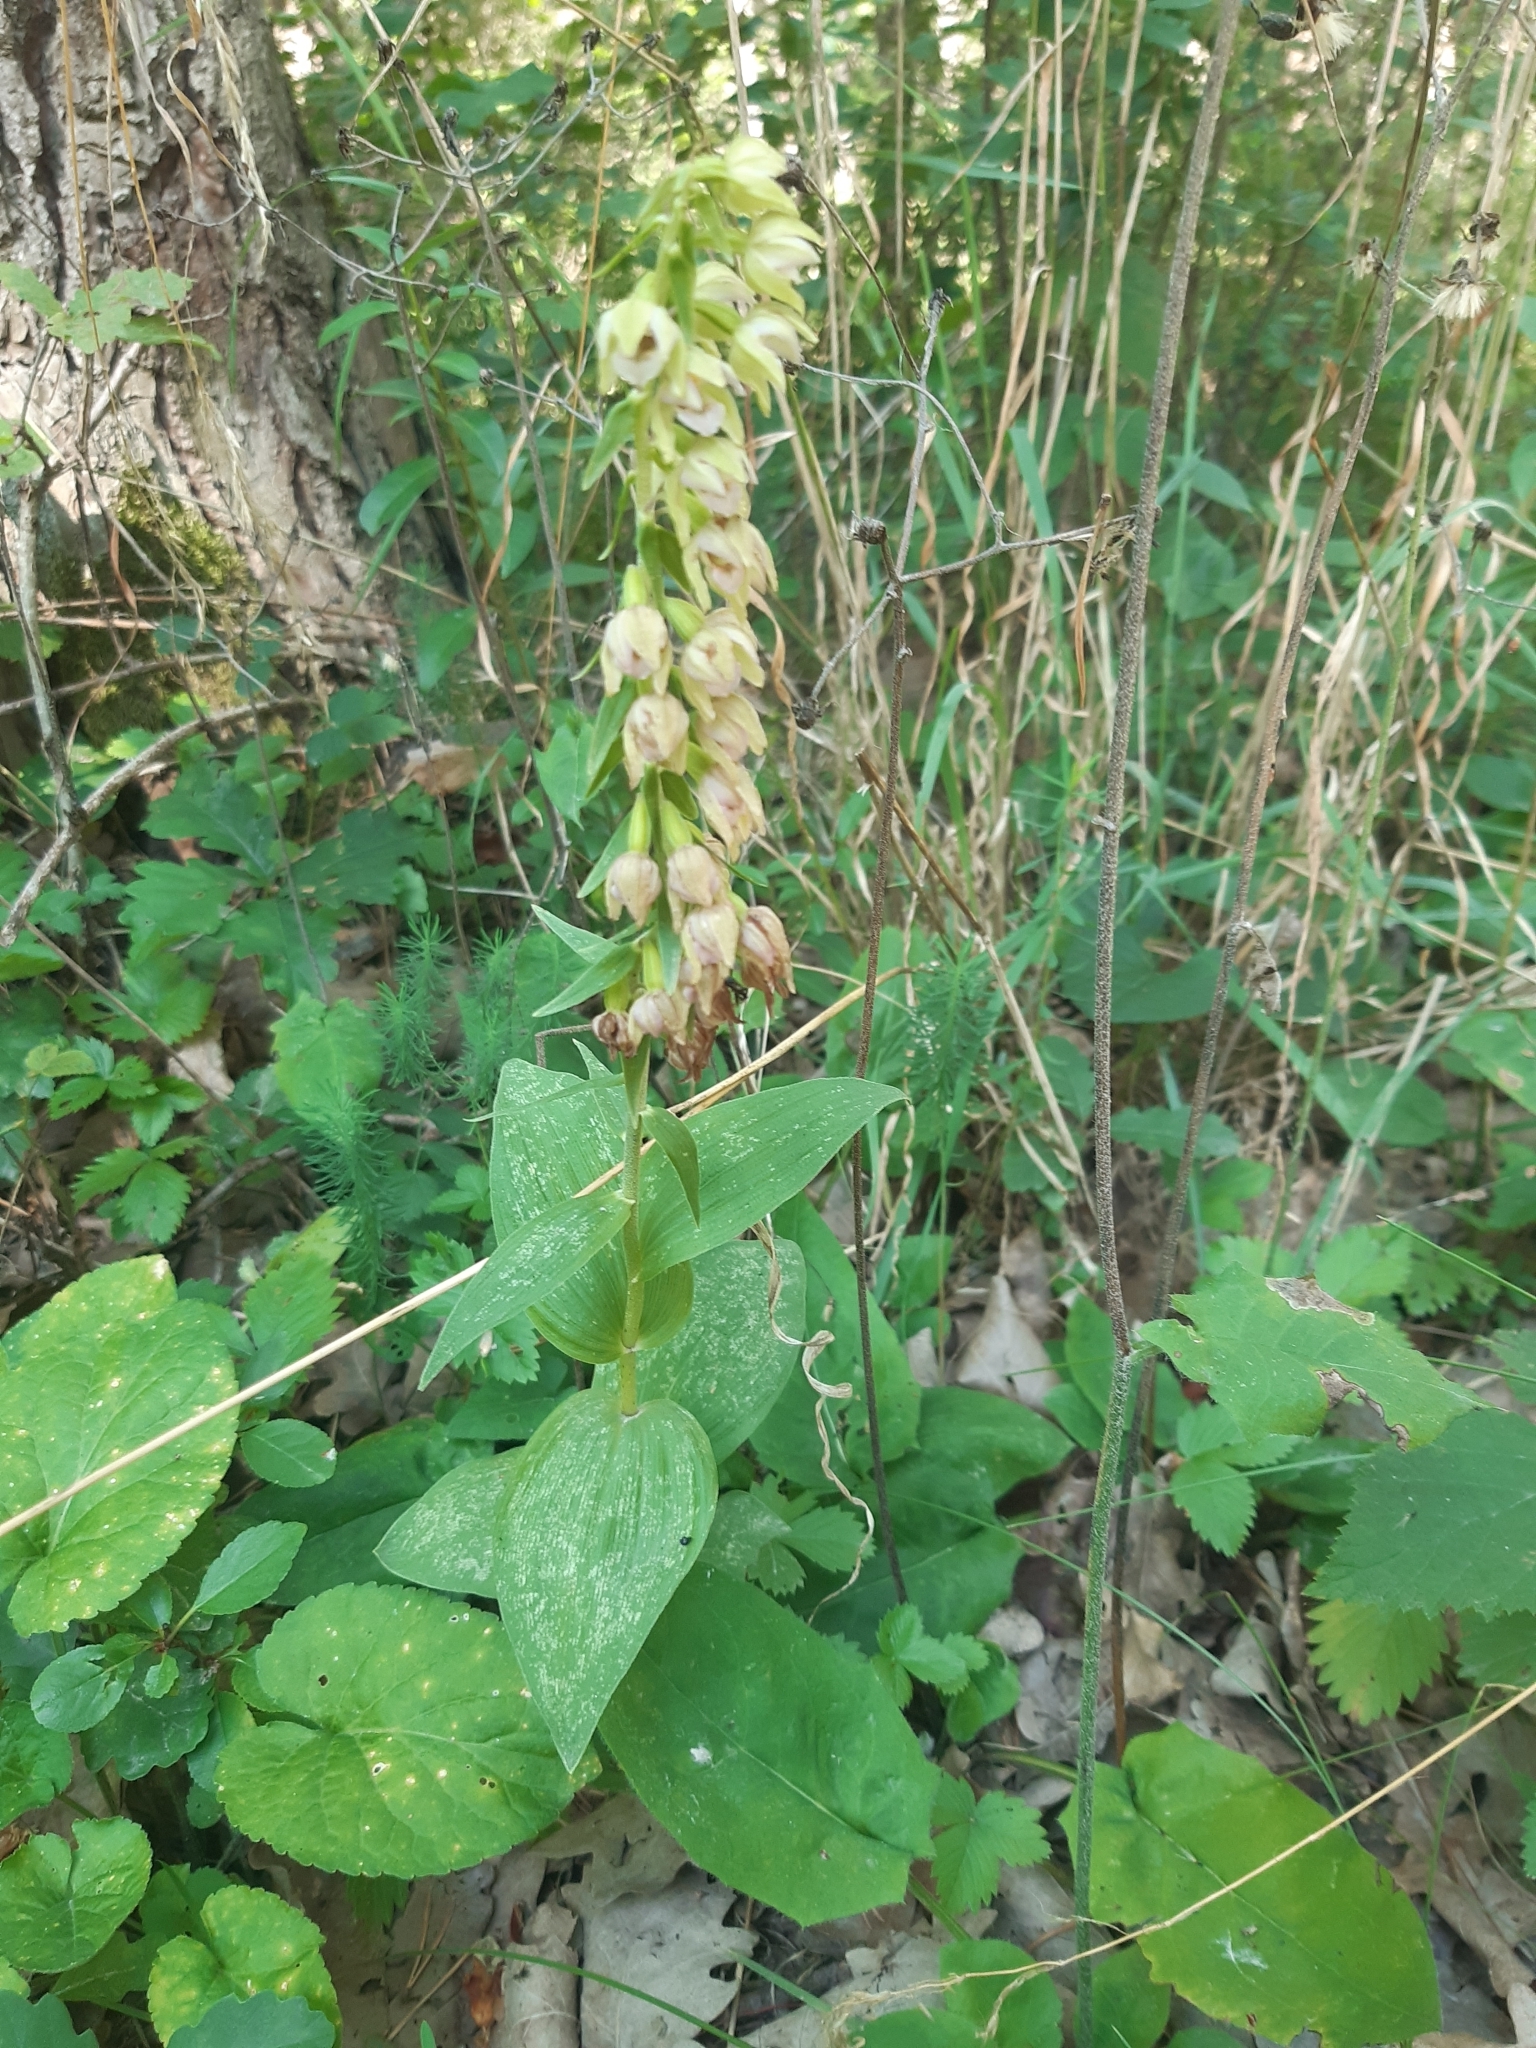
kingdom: Plantae
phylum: Tracheophyta
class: Liliopsida
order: Asparagales
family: Orchidaceae
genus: Epipactis
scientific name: Epipactis helleborine
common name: Broad-leaved helleborine
